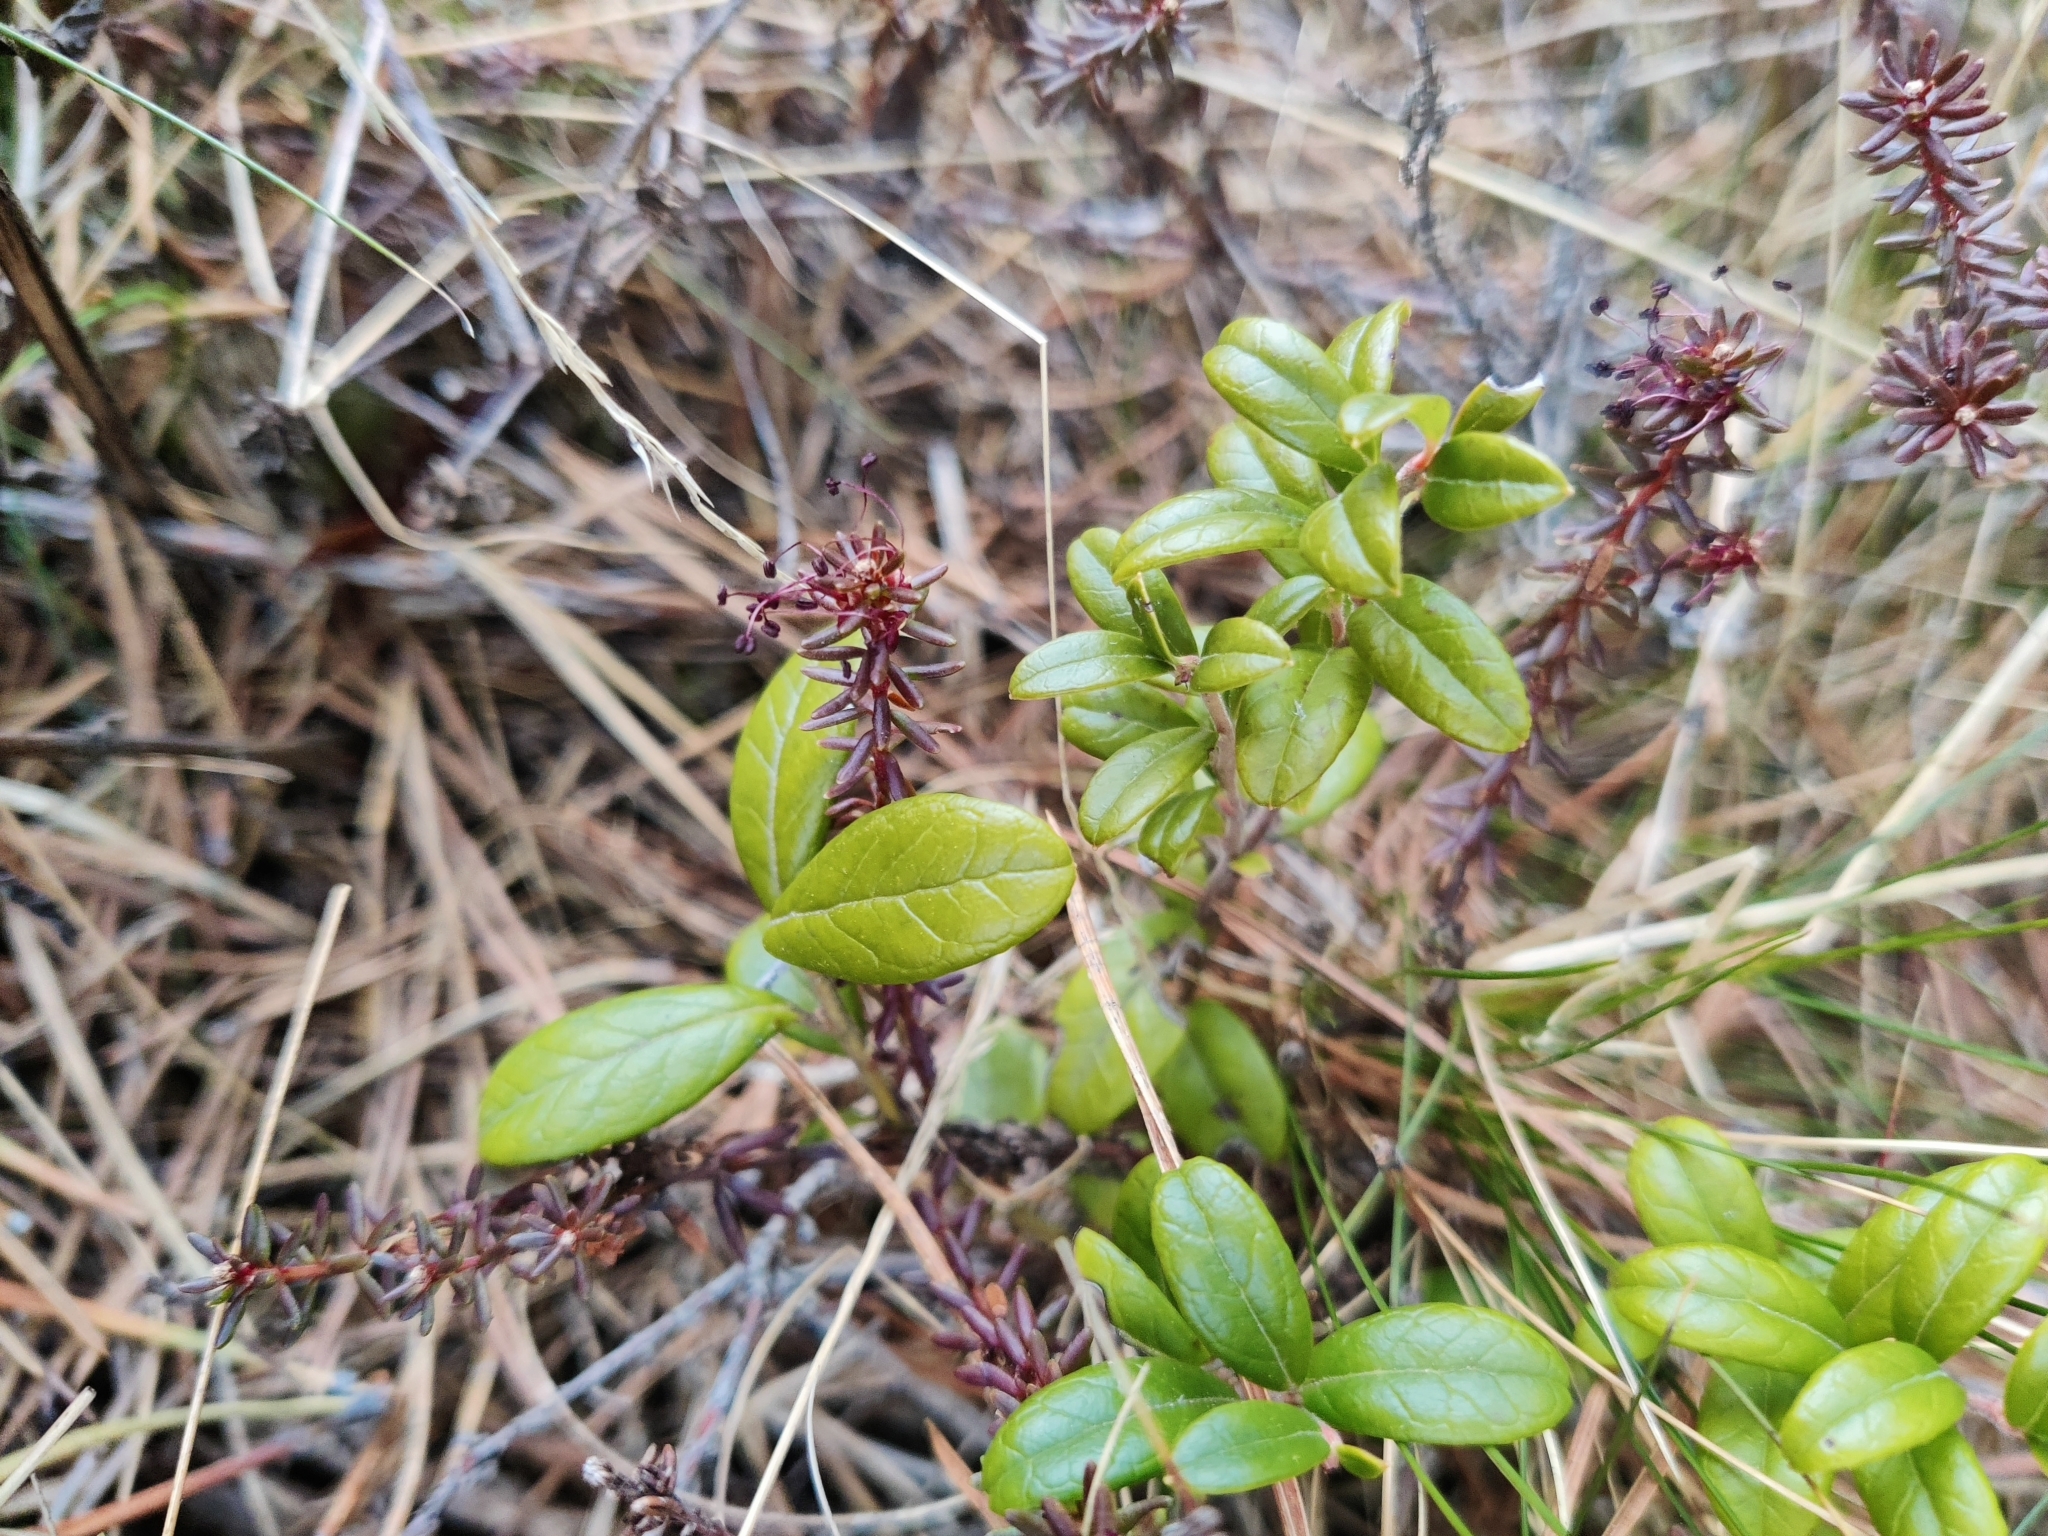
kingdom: Plantae
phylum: Tracheophyta
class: Magnoliopsida
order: Ericales
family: Ericaceae
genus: Vaccinium
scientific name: Vaccinium vitis-idaea
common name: Cowberry
